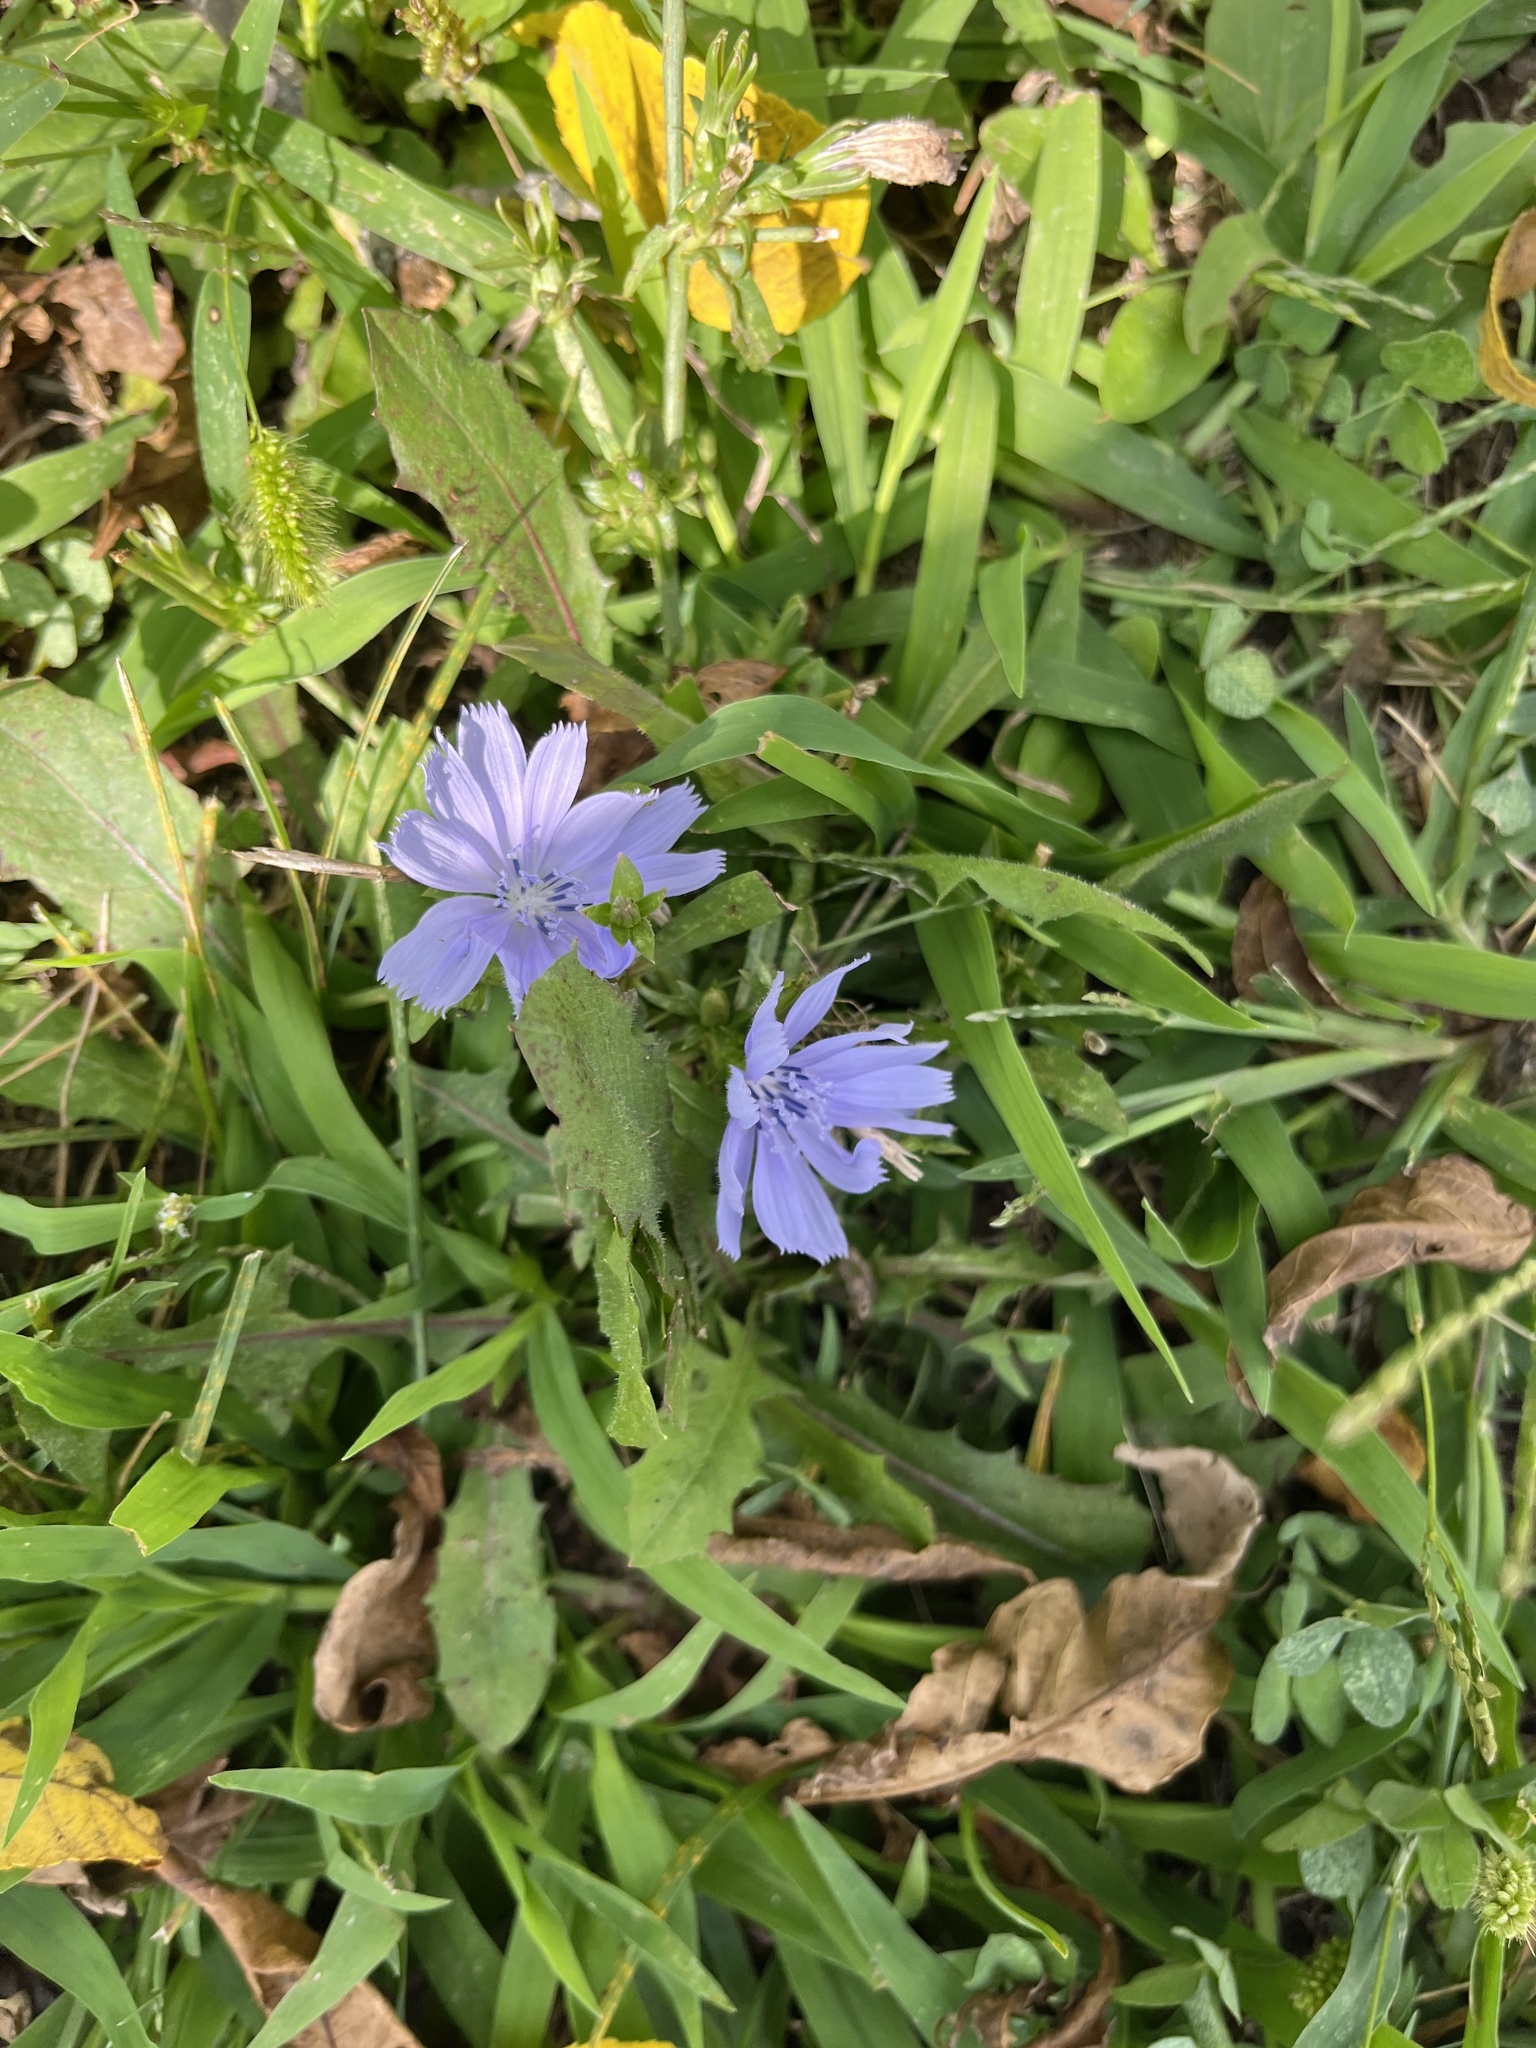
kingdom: Plantae
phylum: Tracheophyta
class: Magnoliopsida
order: Asterales
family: Asteraceae
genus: Cichorium
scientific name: Cichorium intybus
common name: Chicory
